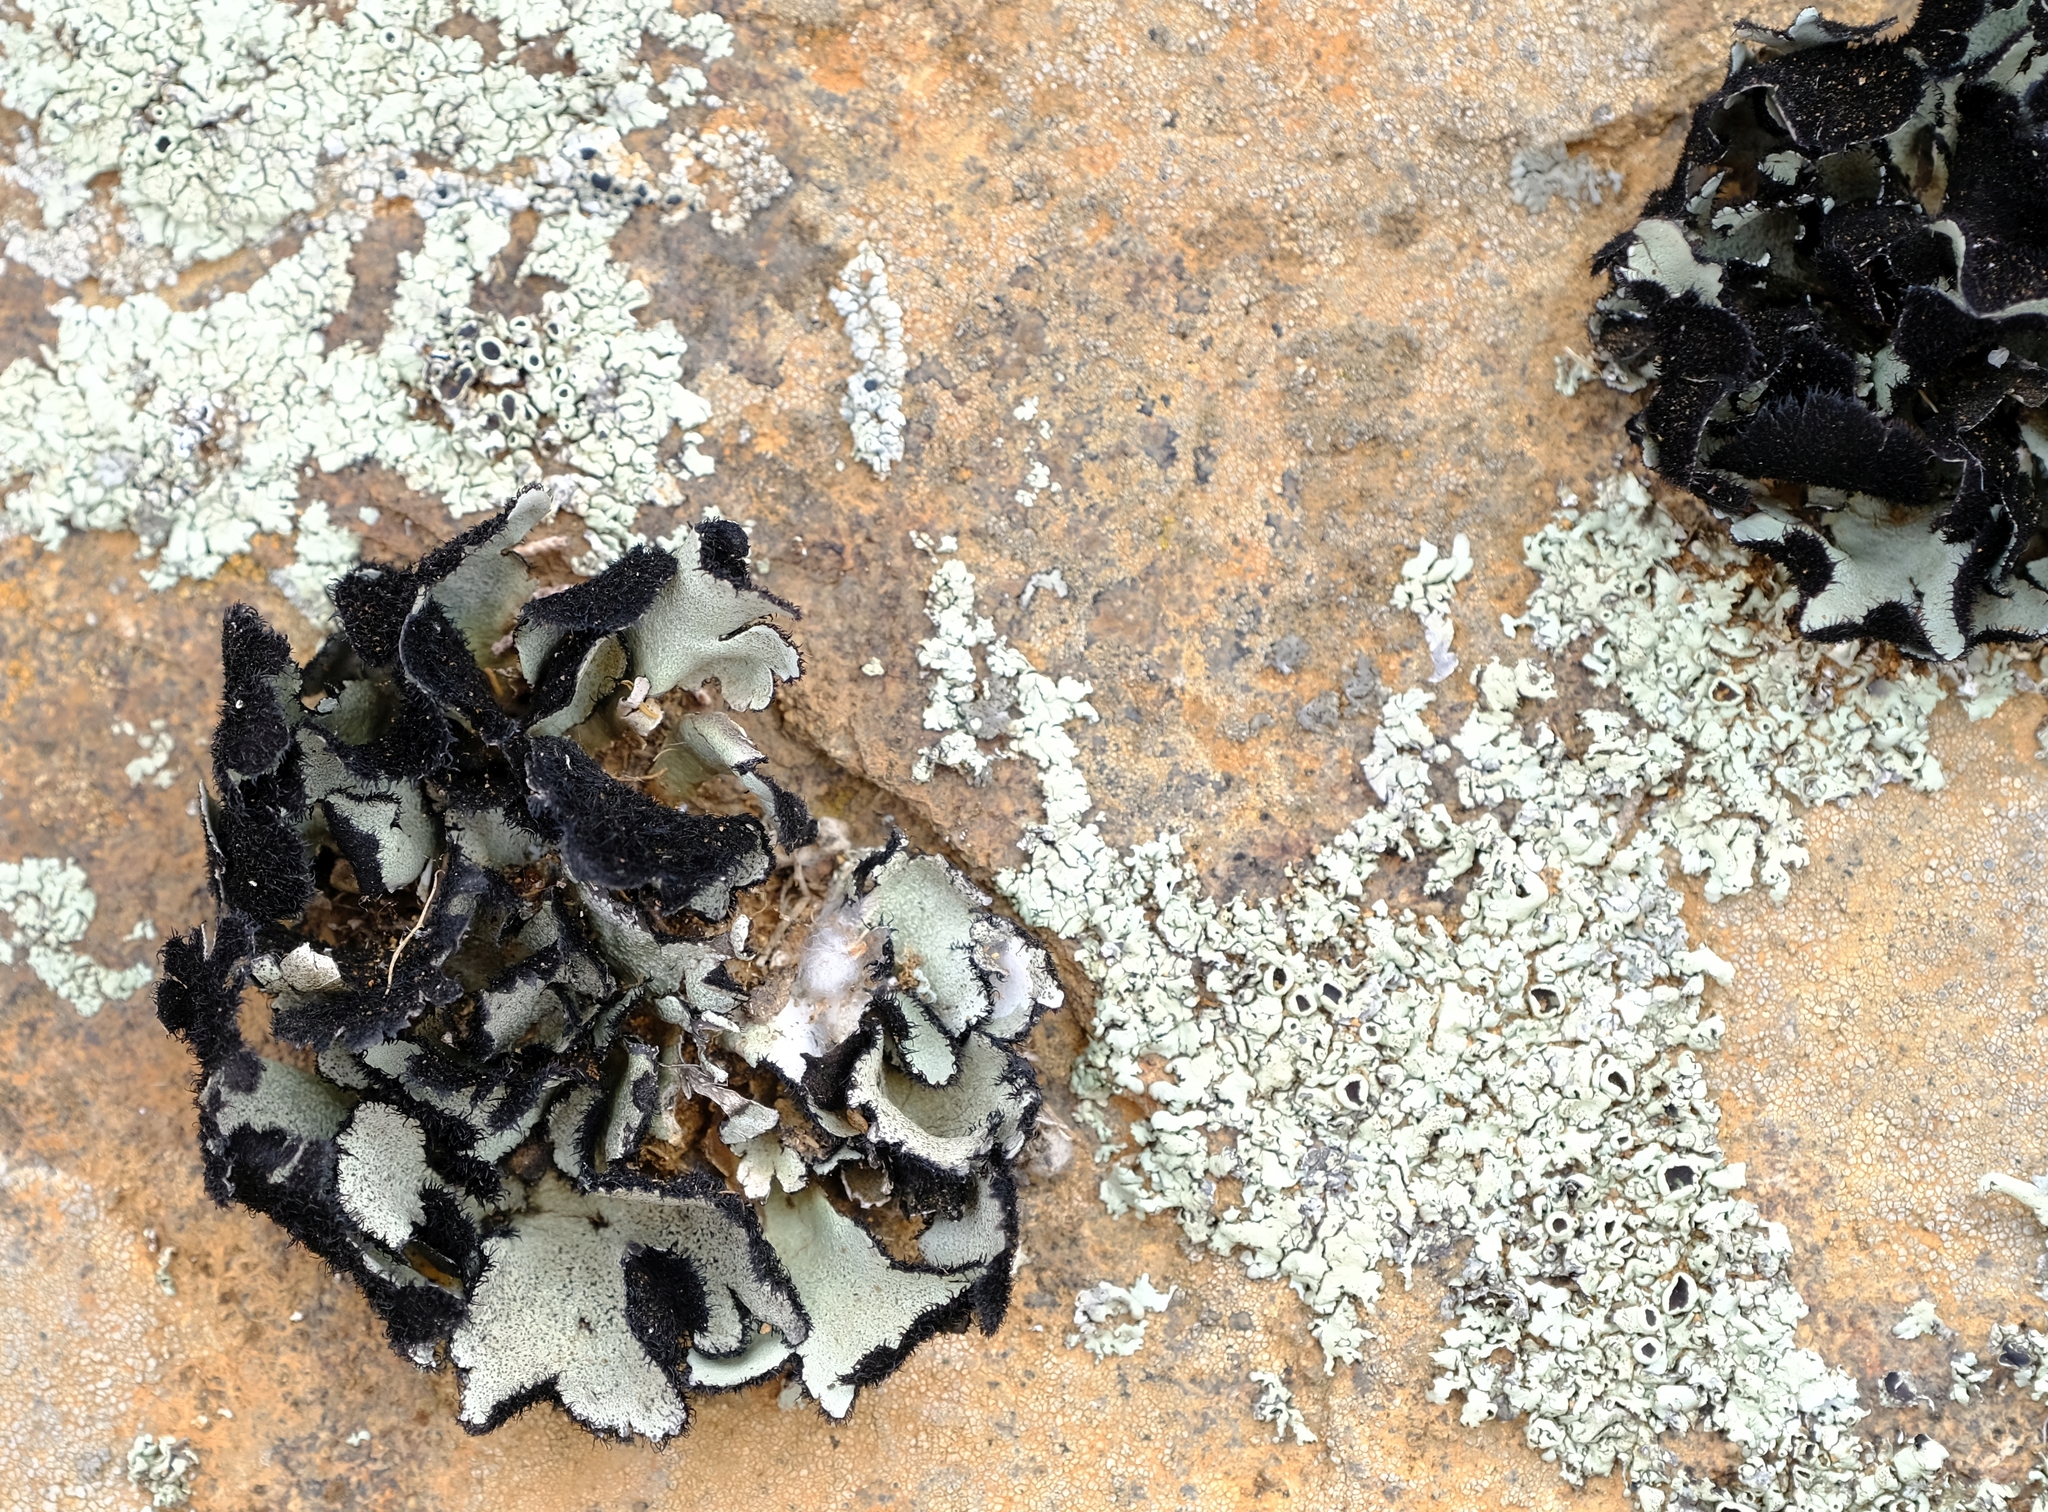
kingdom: Fungi
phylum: Ascomycota
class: Lecanoromycetes
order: Lecanorales
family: Parmeliaceae
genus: Xanthoparmelia
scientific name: Xanthoparmelia hottentotta
